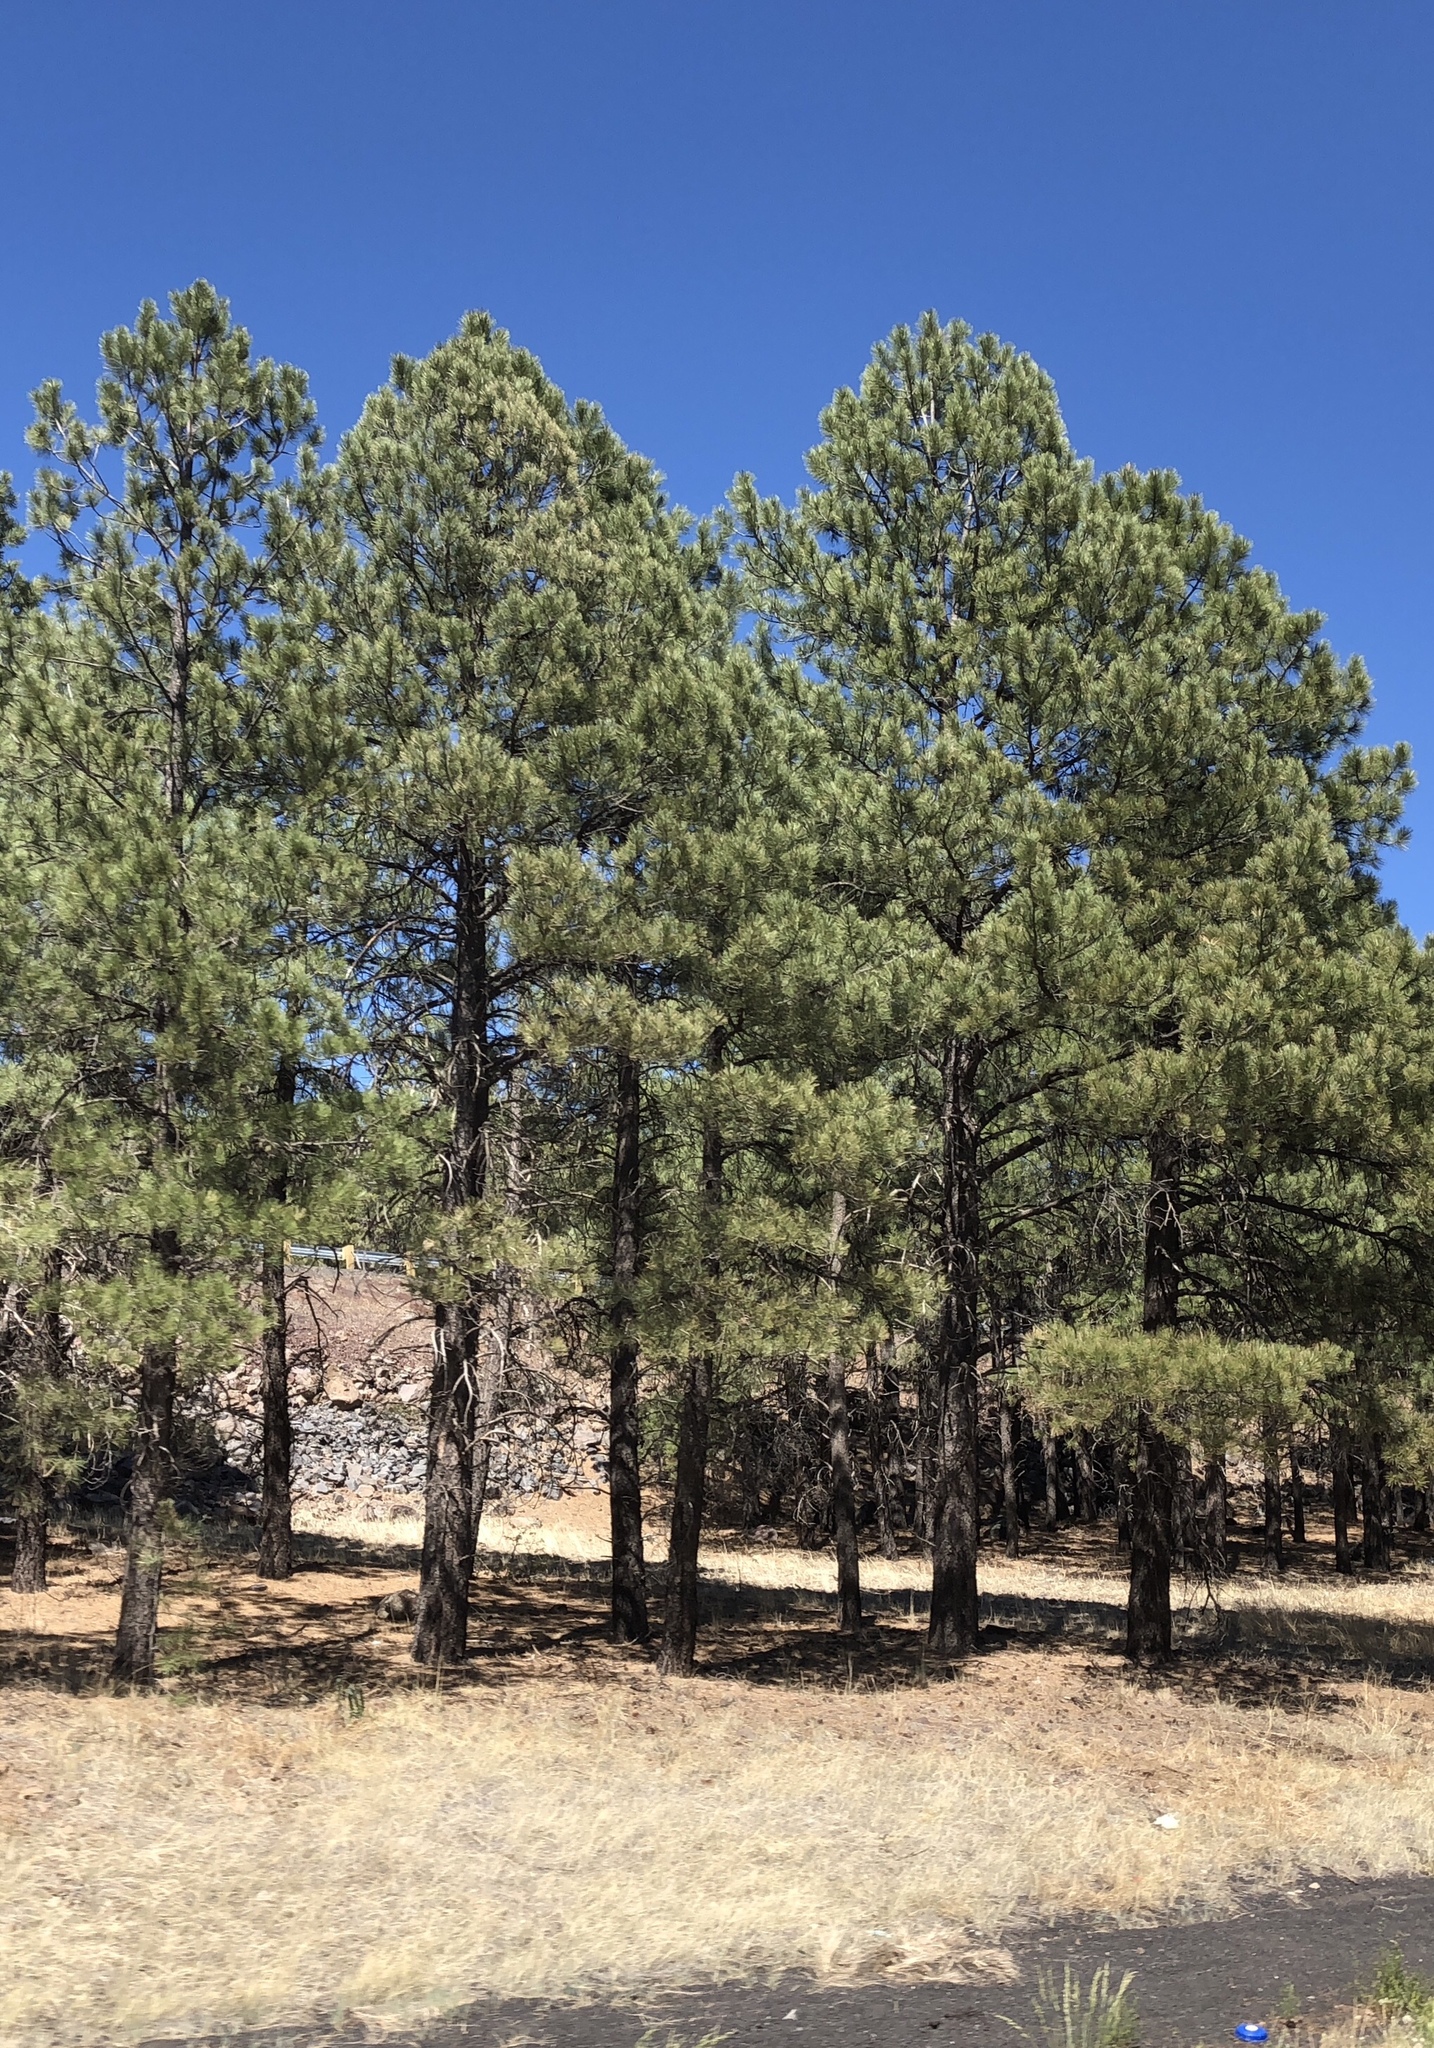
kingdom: Plantae
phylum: Tracheophyta
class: Pinopsida
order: Pinales
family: Pinaceae
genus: Pinus
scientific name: Pinus ponderosa
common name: Western yellow-pine
